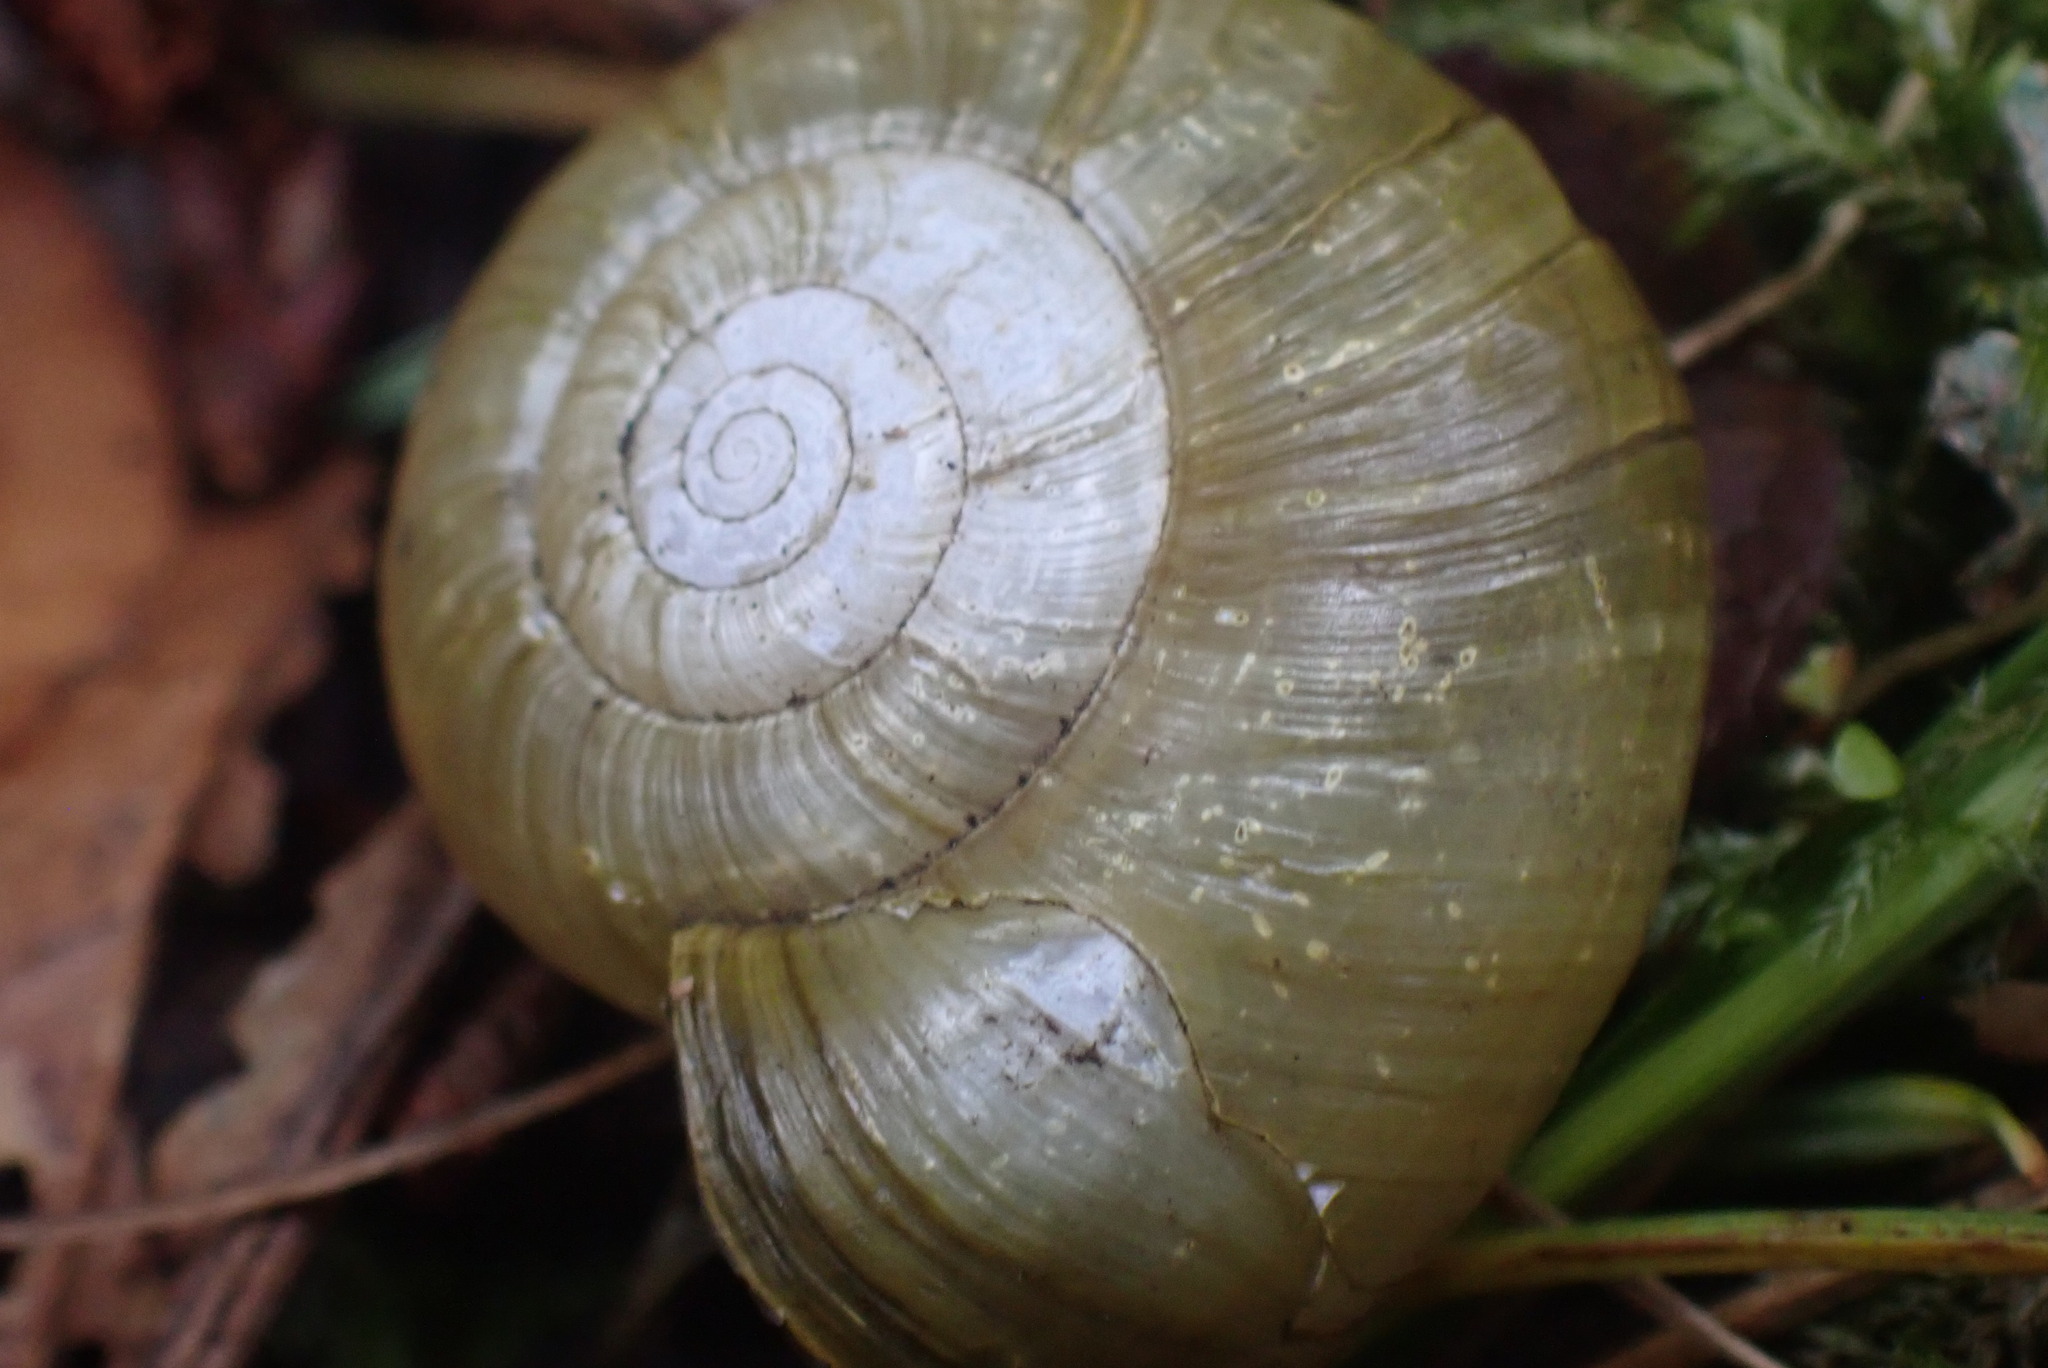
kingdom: Animalia
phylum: Mollusca
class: Gastropoda
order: Stylommatophora
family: Haplotrematidae
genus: Haplotrema
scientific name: Haplotrema vancouverense
